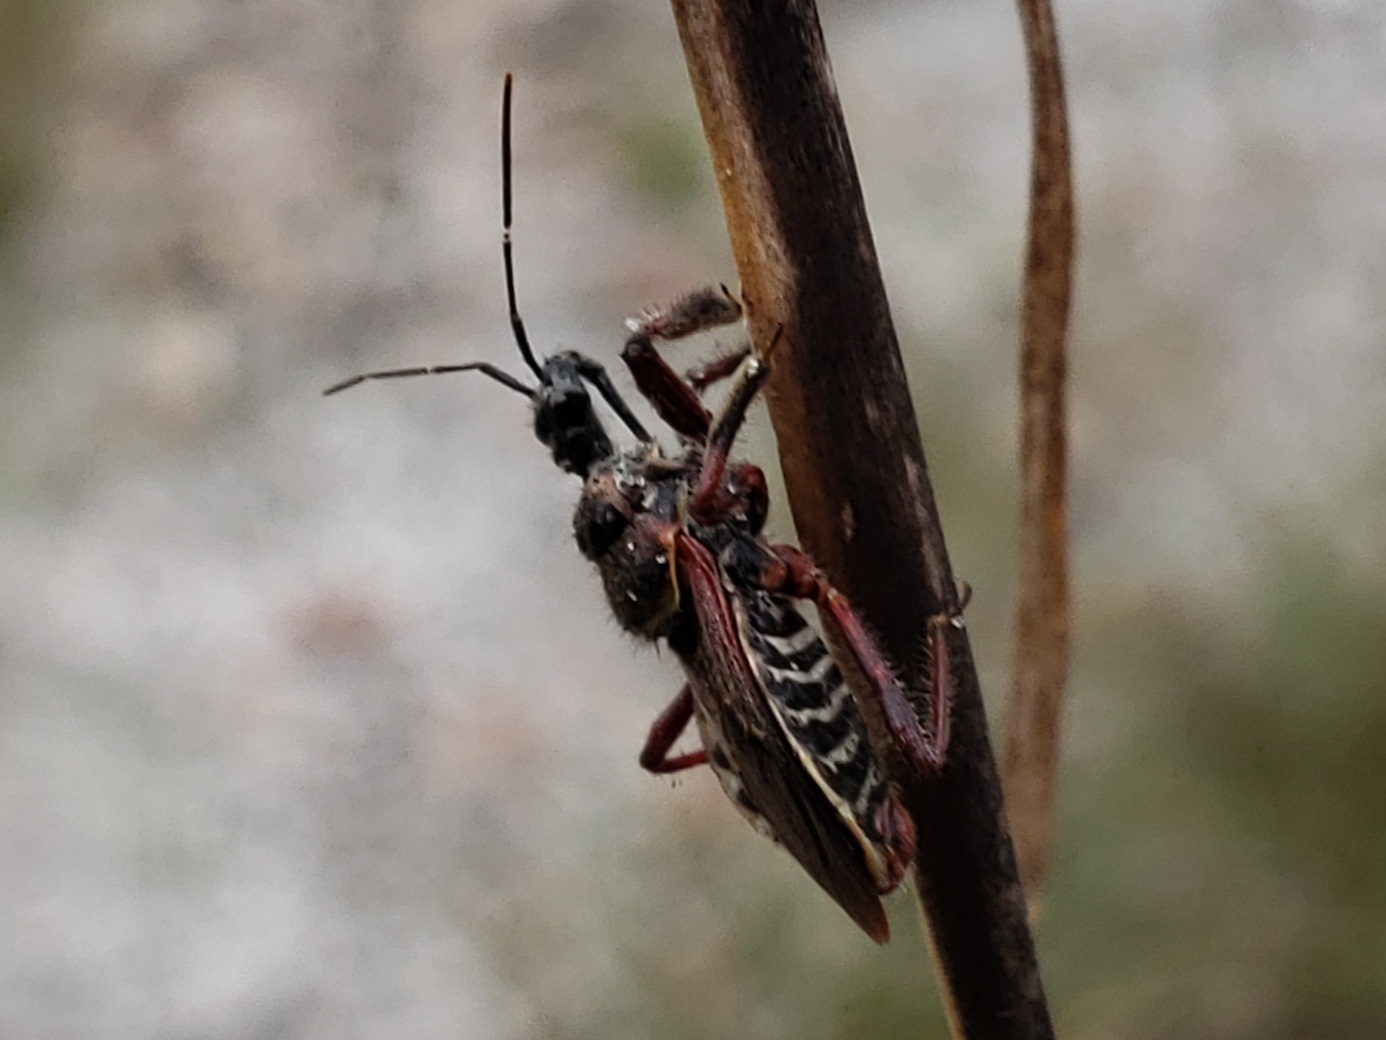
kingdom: Animalia
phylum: Arthropoda
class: Insecta
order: Hemiptera
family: Reduviidae
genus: Apiomerus
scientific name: Apiomerus floridensis
